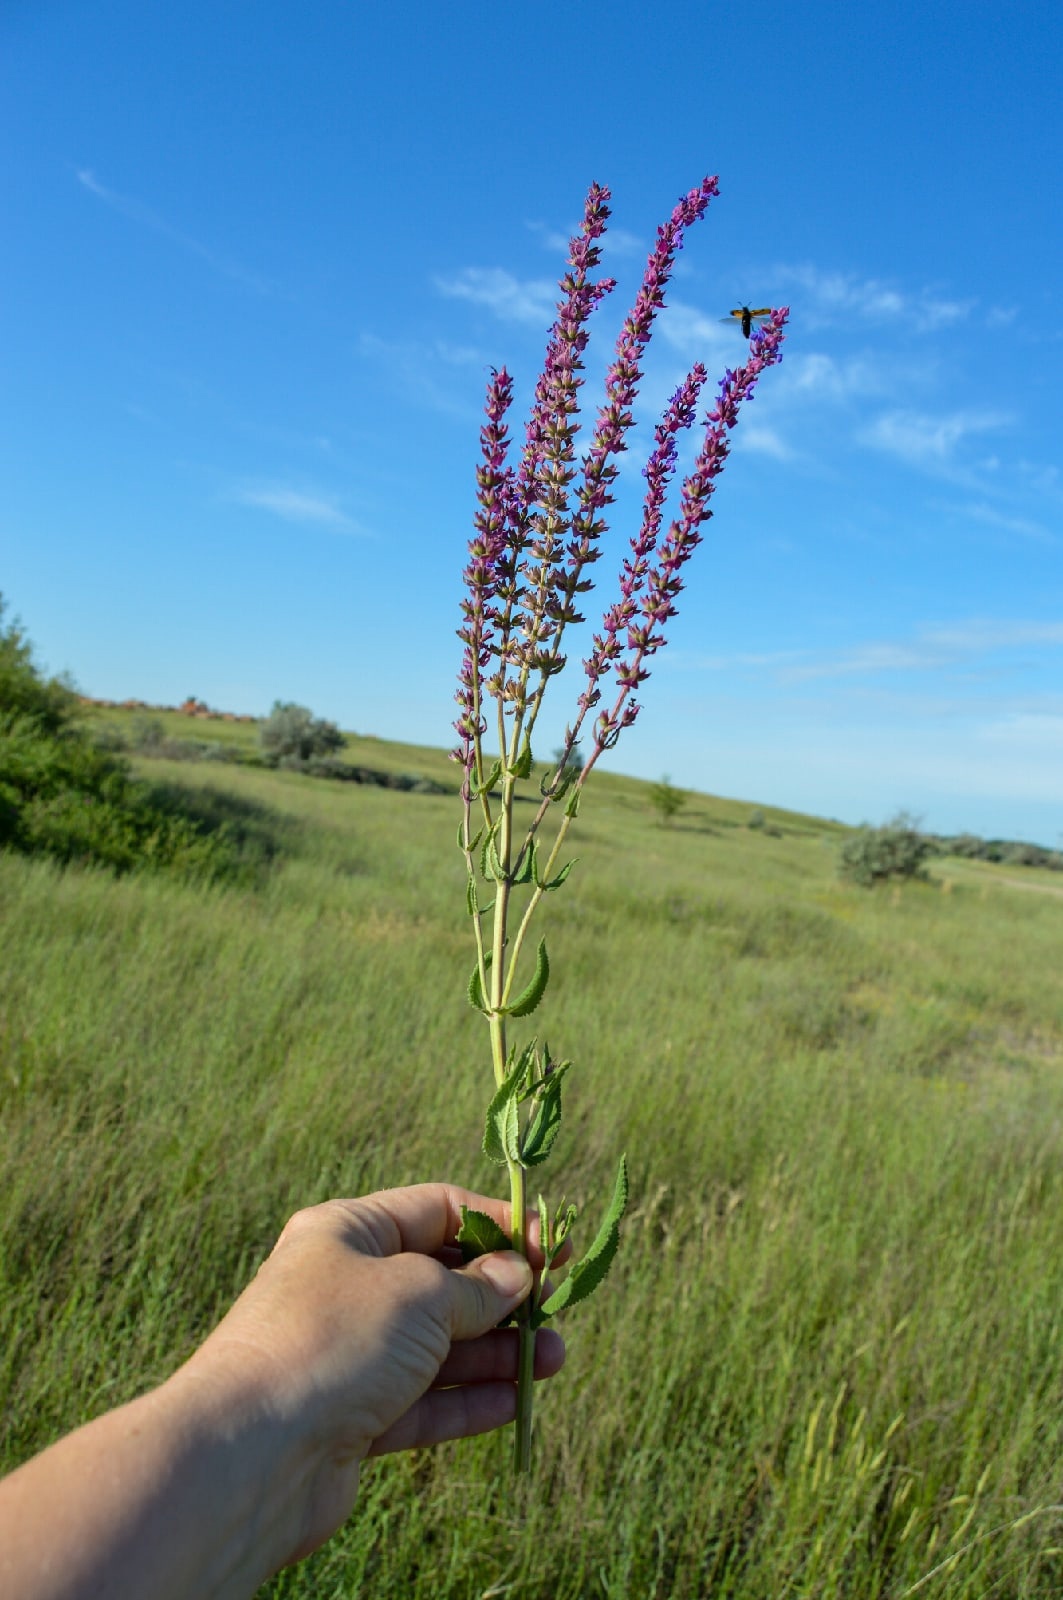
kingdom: Plantae
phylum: Tracheophyta
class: Magnoliopsida
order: Lamiales
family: Lamiaceae
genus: Salvia
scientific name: Salvia nemorosa
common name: Balkan clary
